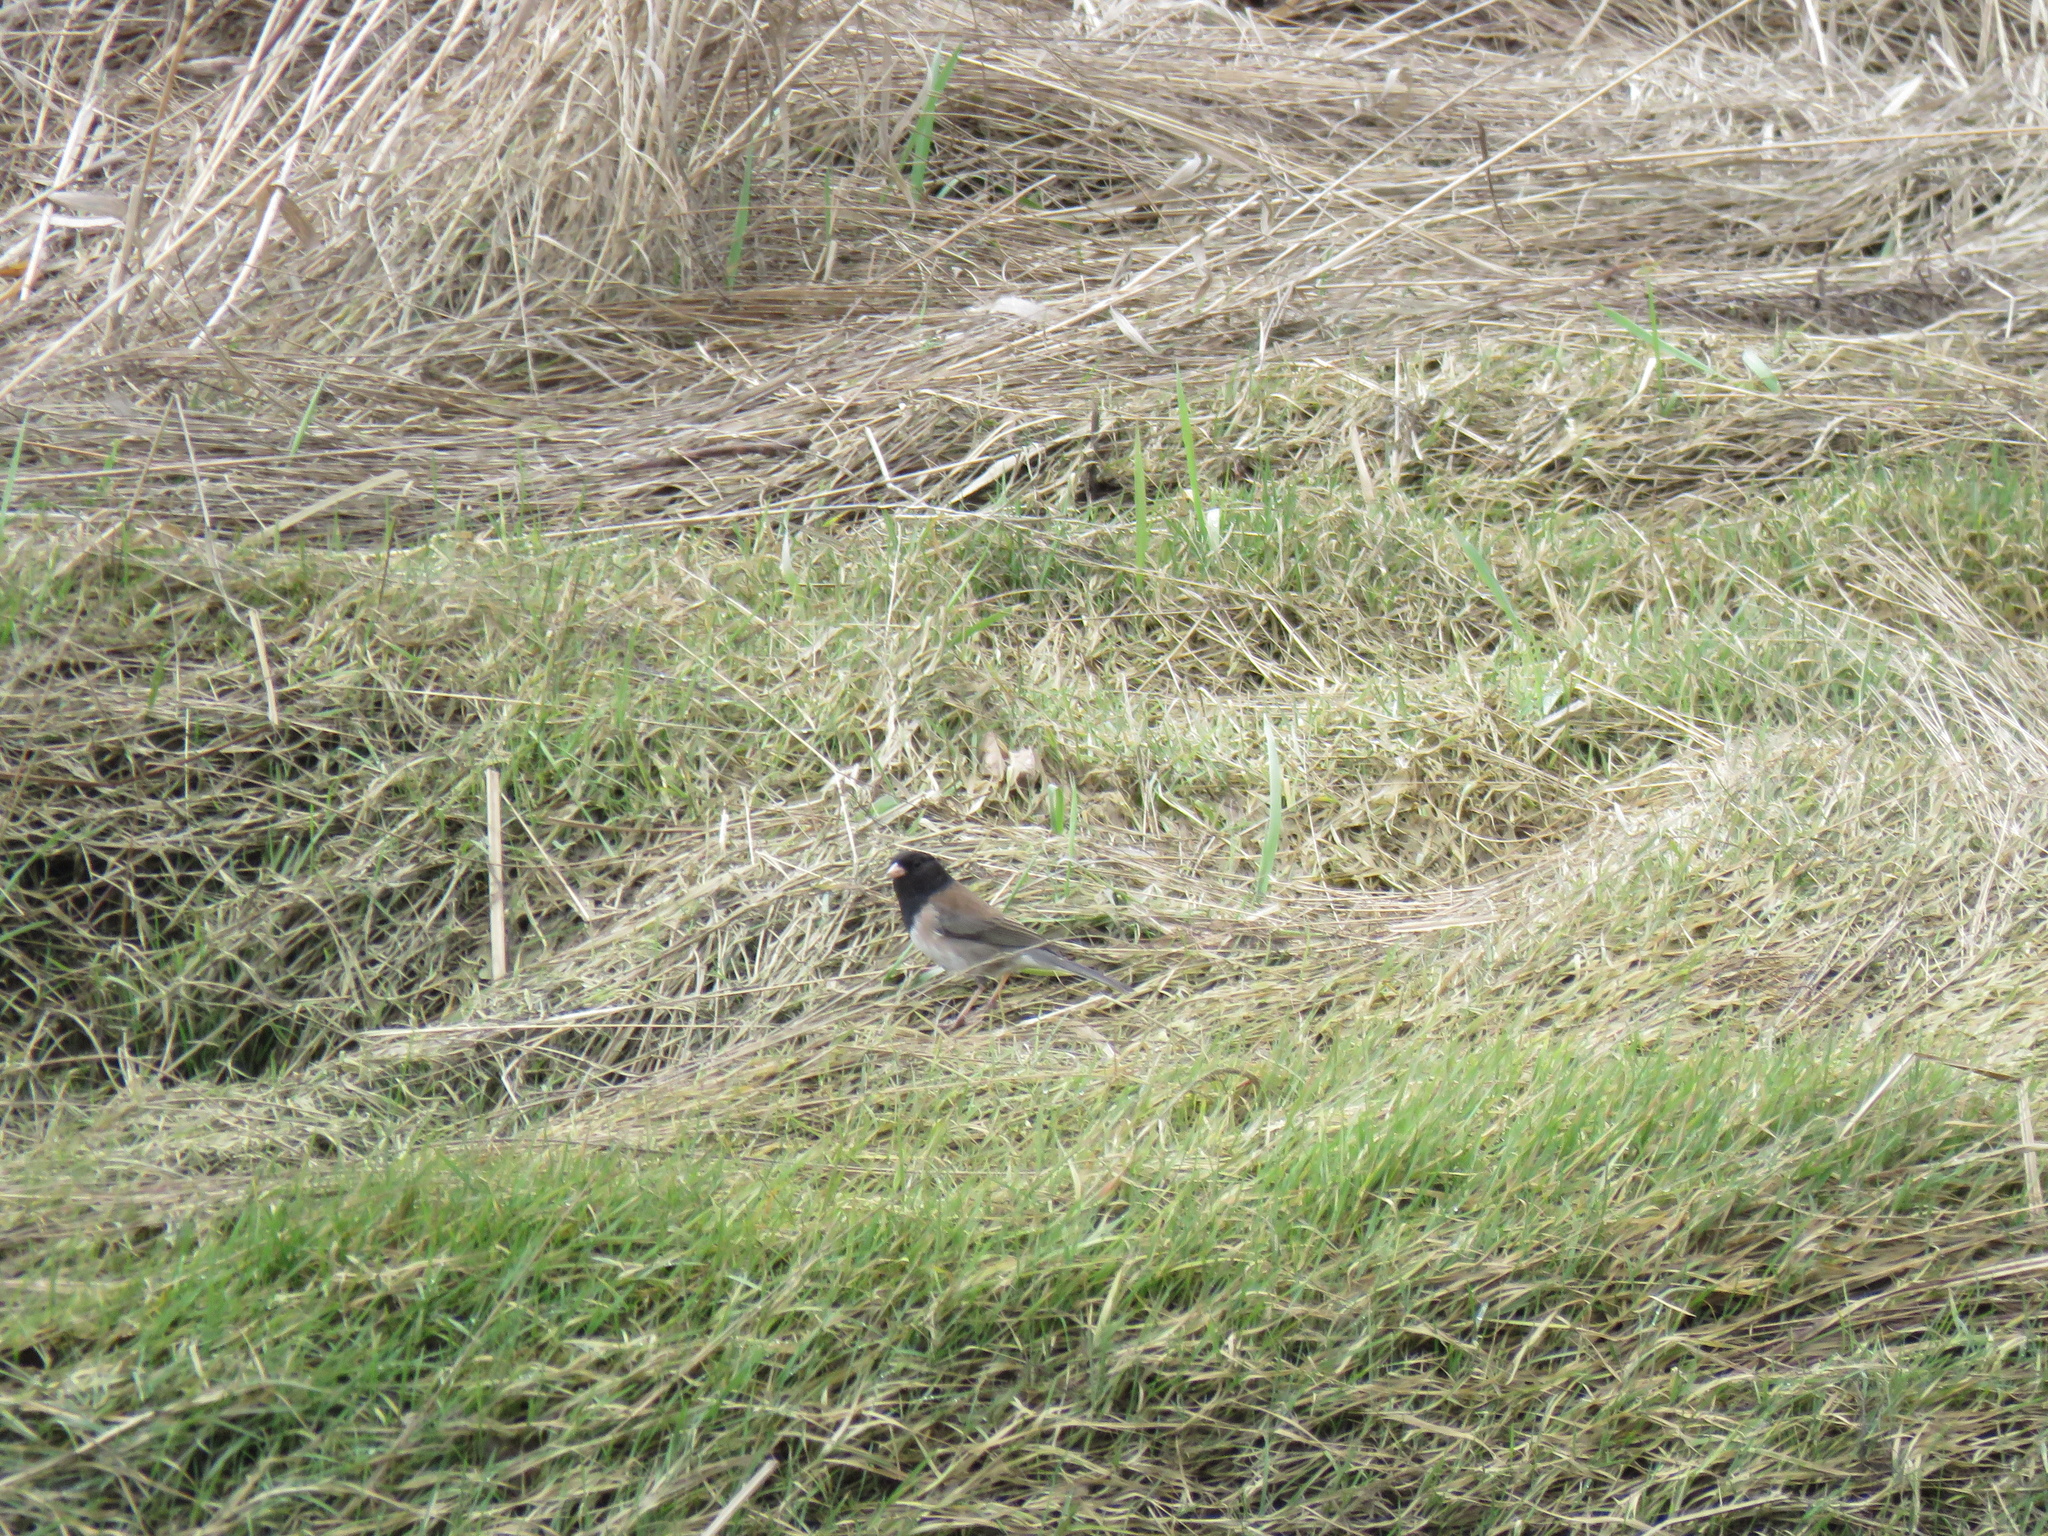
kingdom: Animalia
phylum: Chordata
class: Aves
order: Passeriformes
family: Passerellidae
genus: Junco
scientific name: Junco hyemalis
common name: Dark-eyed junco
